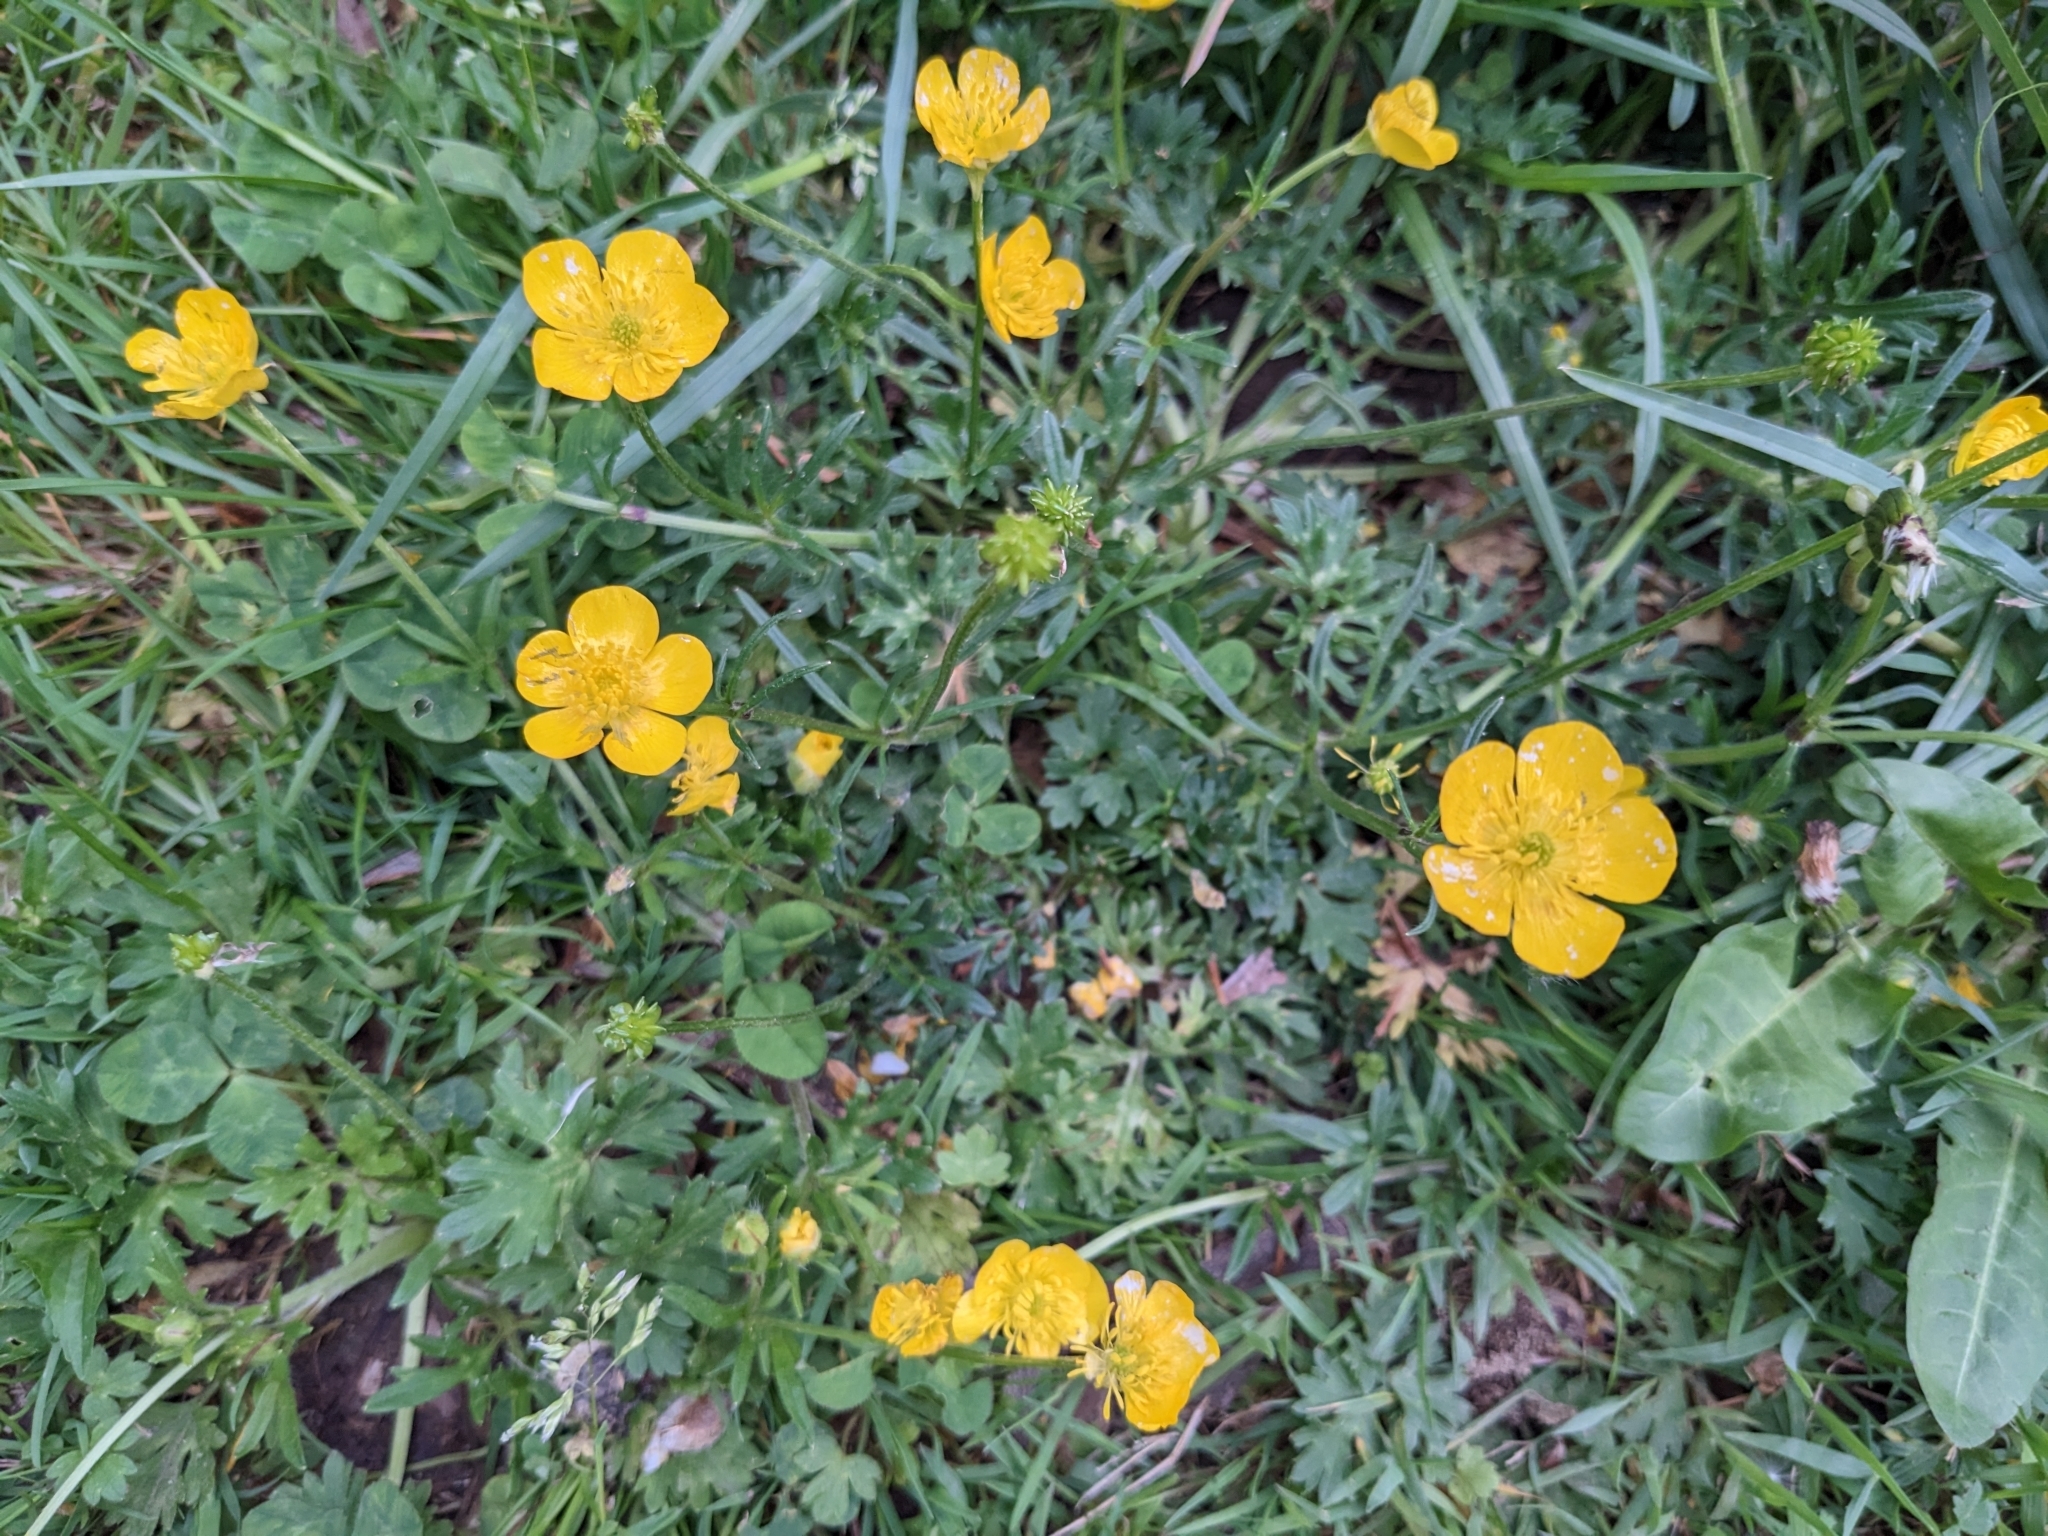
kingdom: Plantae
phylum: Tracheophyta
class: Magnoliopsida
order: Ranunculales
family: Ranunculaceae
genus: Ranunculus
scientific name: Ranunculus bulbosus
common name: Bulbous buttercup
